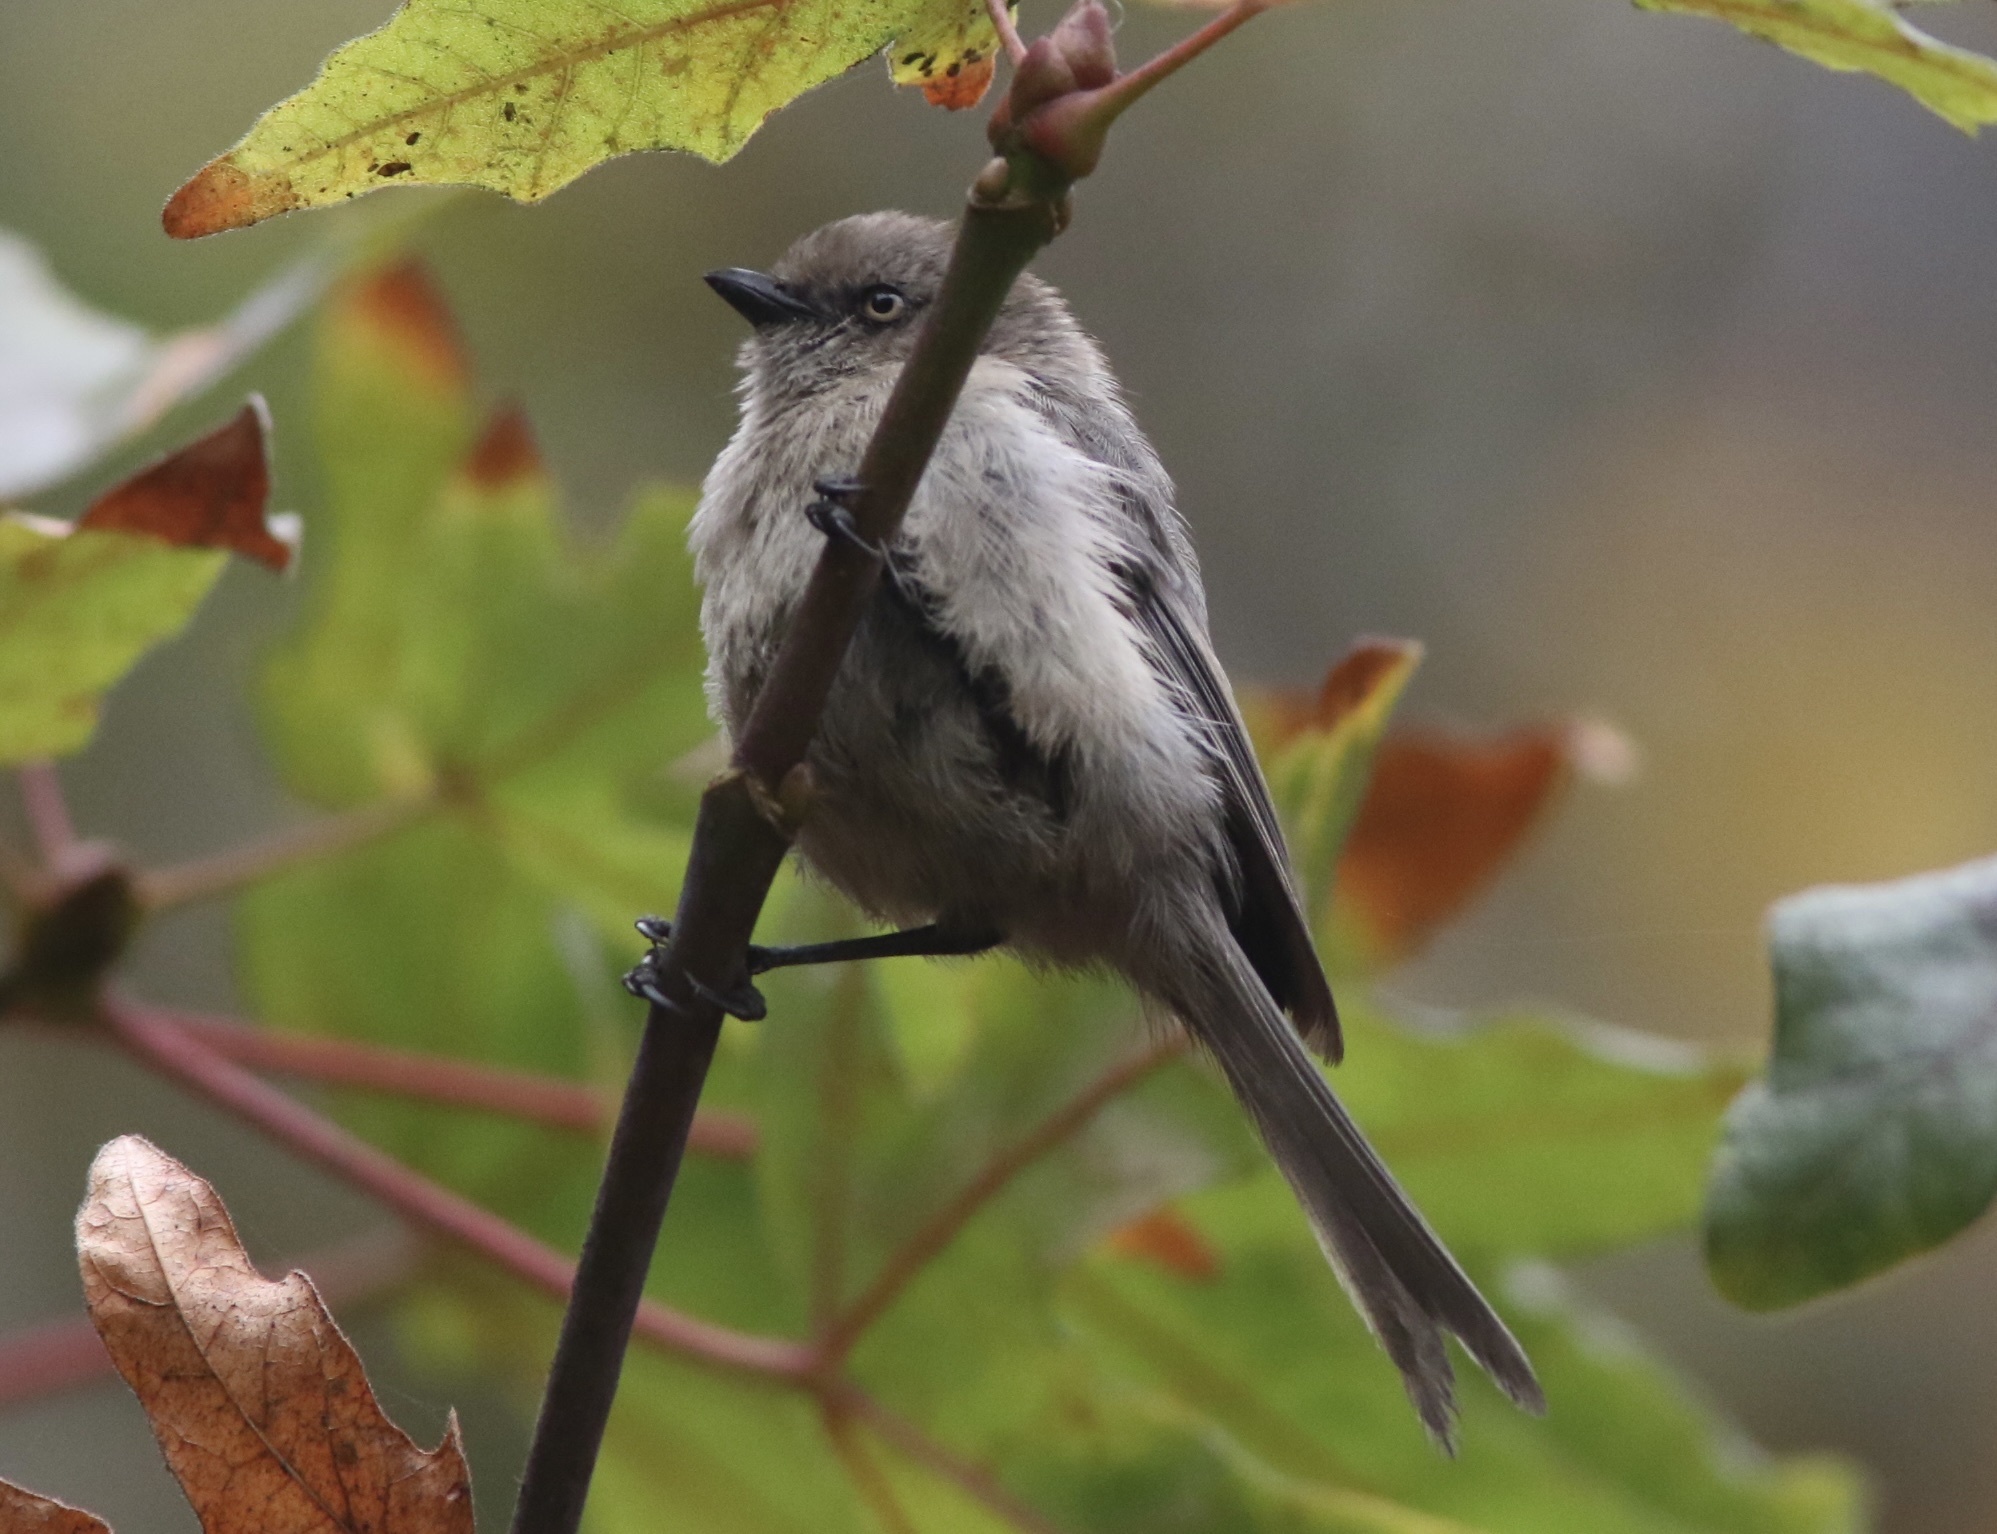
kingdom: Animalia
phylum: Chordata
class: Aves
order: Passeriformes
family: Aegithalidae
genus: Psaltriparus
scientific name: Psaltriparus minimus
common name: American bushtit
